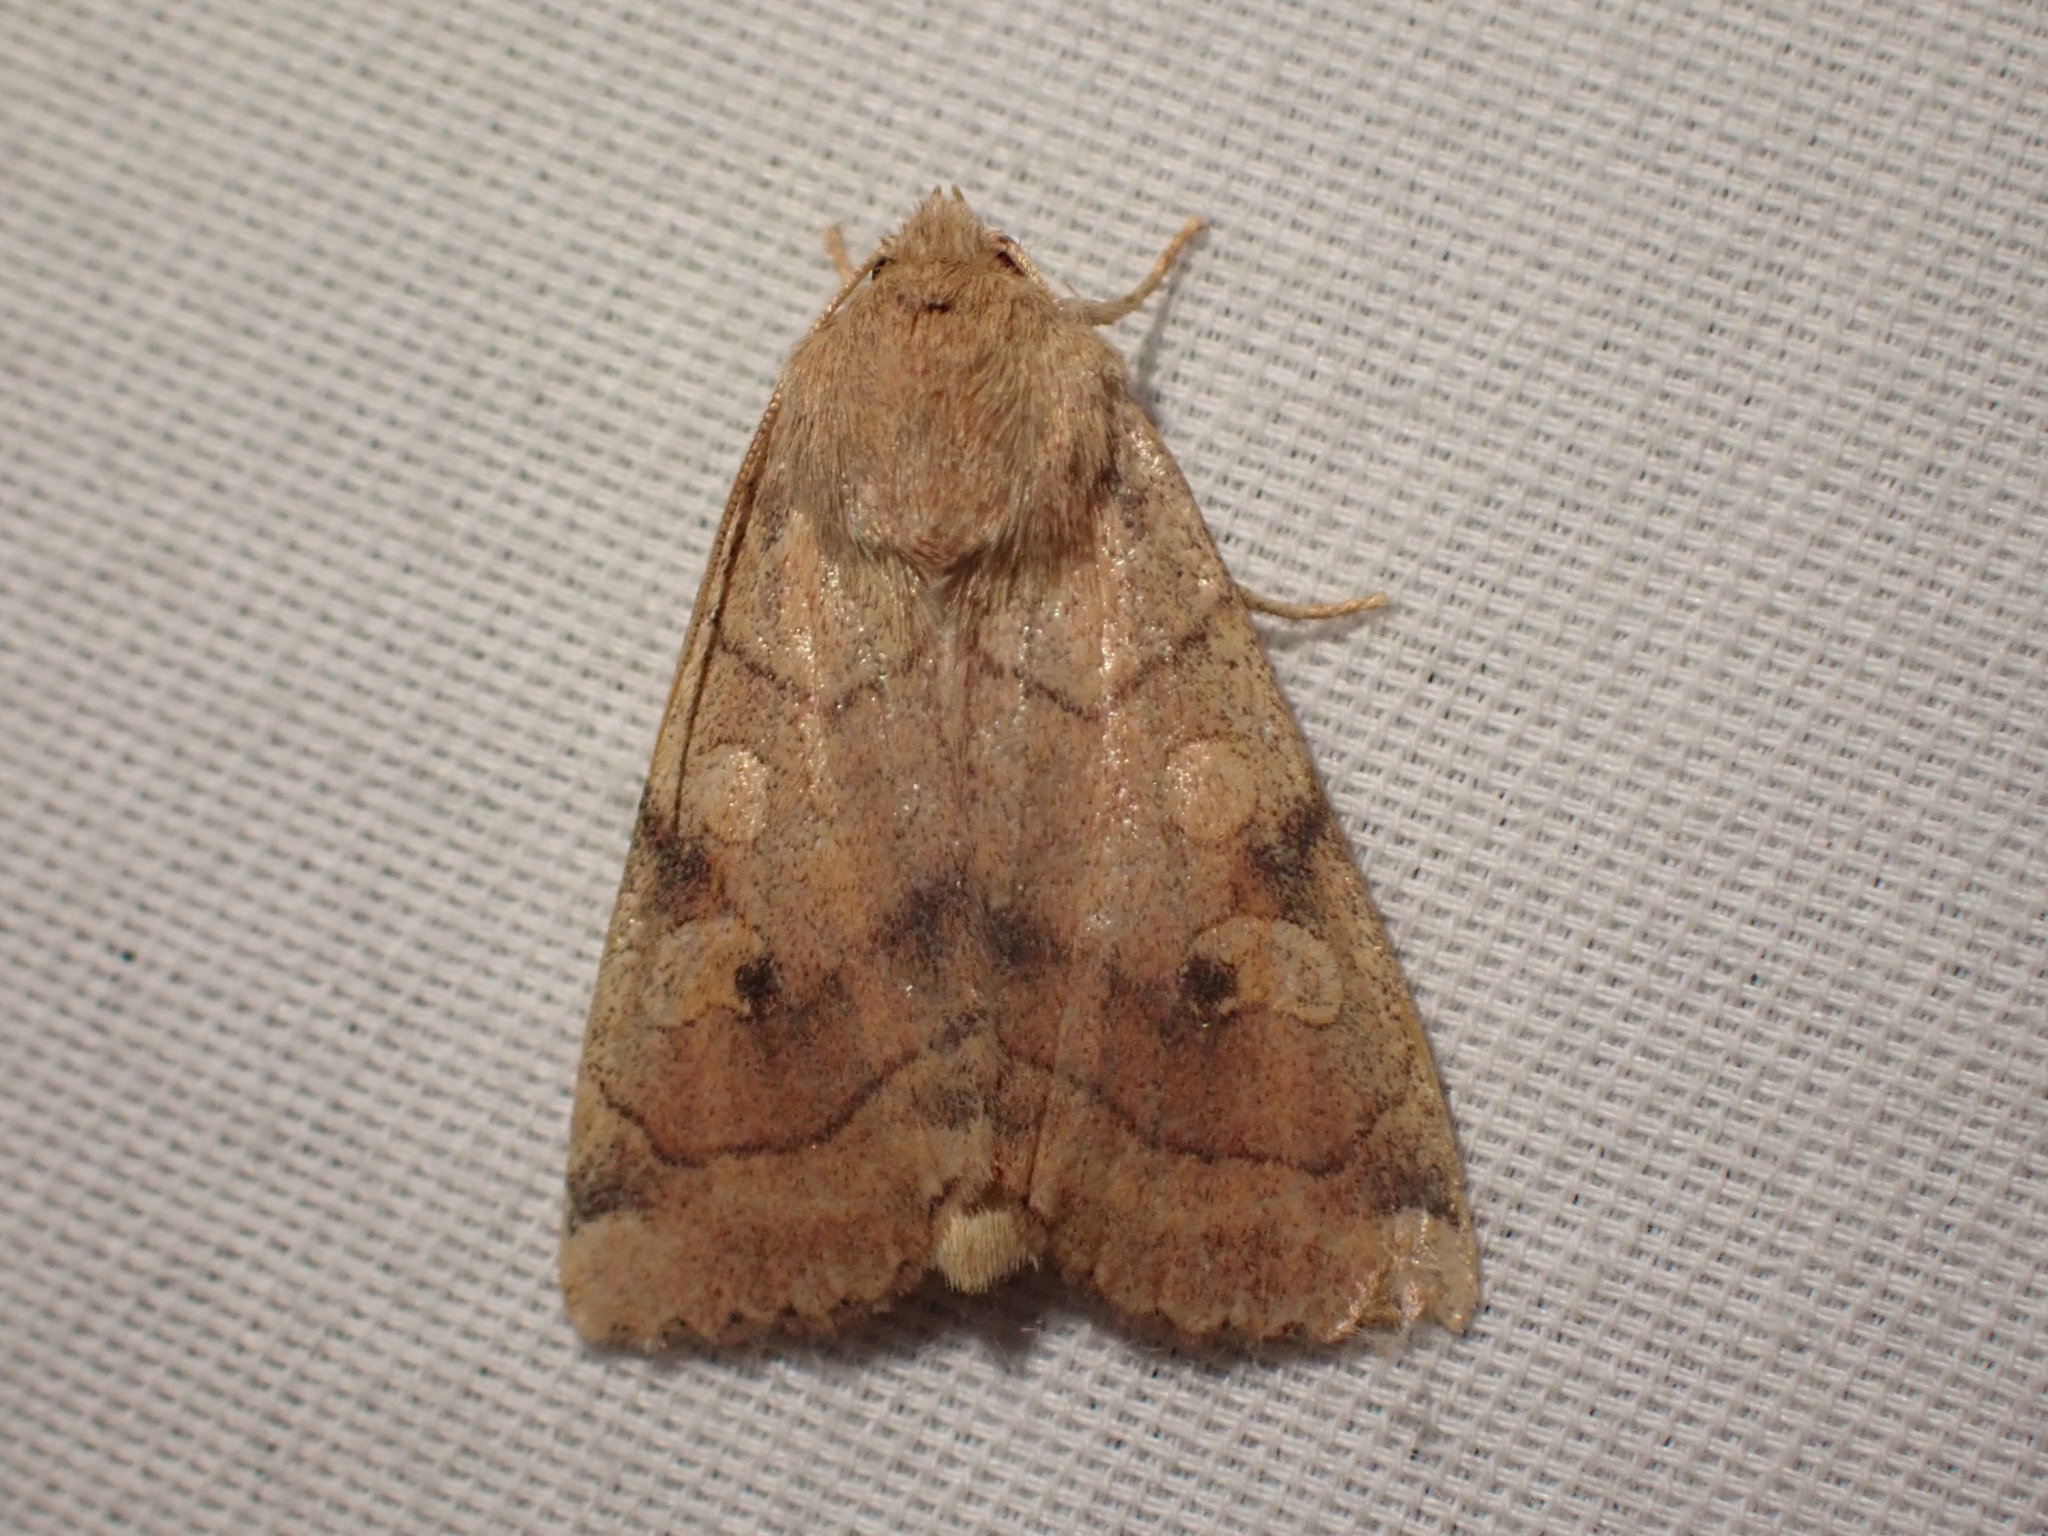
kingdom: Animalia
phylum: Arthropoda
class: Insecta
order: Lepidoptera
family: Noctuidae
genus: Enargia
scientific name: Enargia infumata
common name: Smoked sallow
